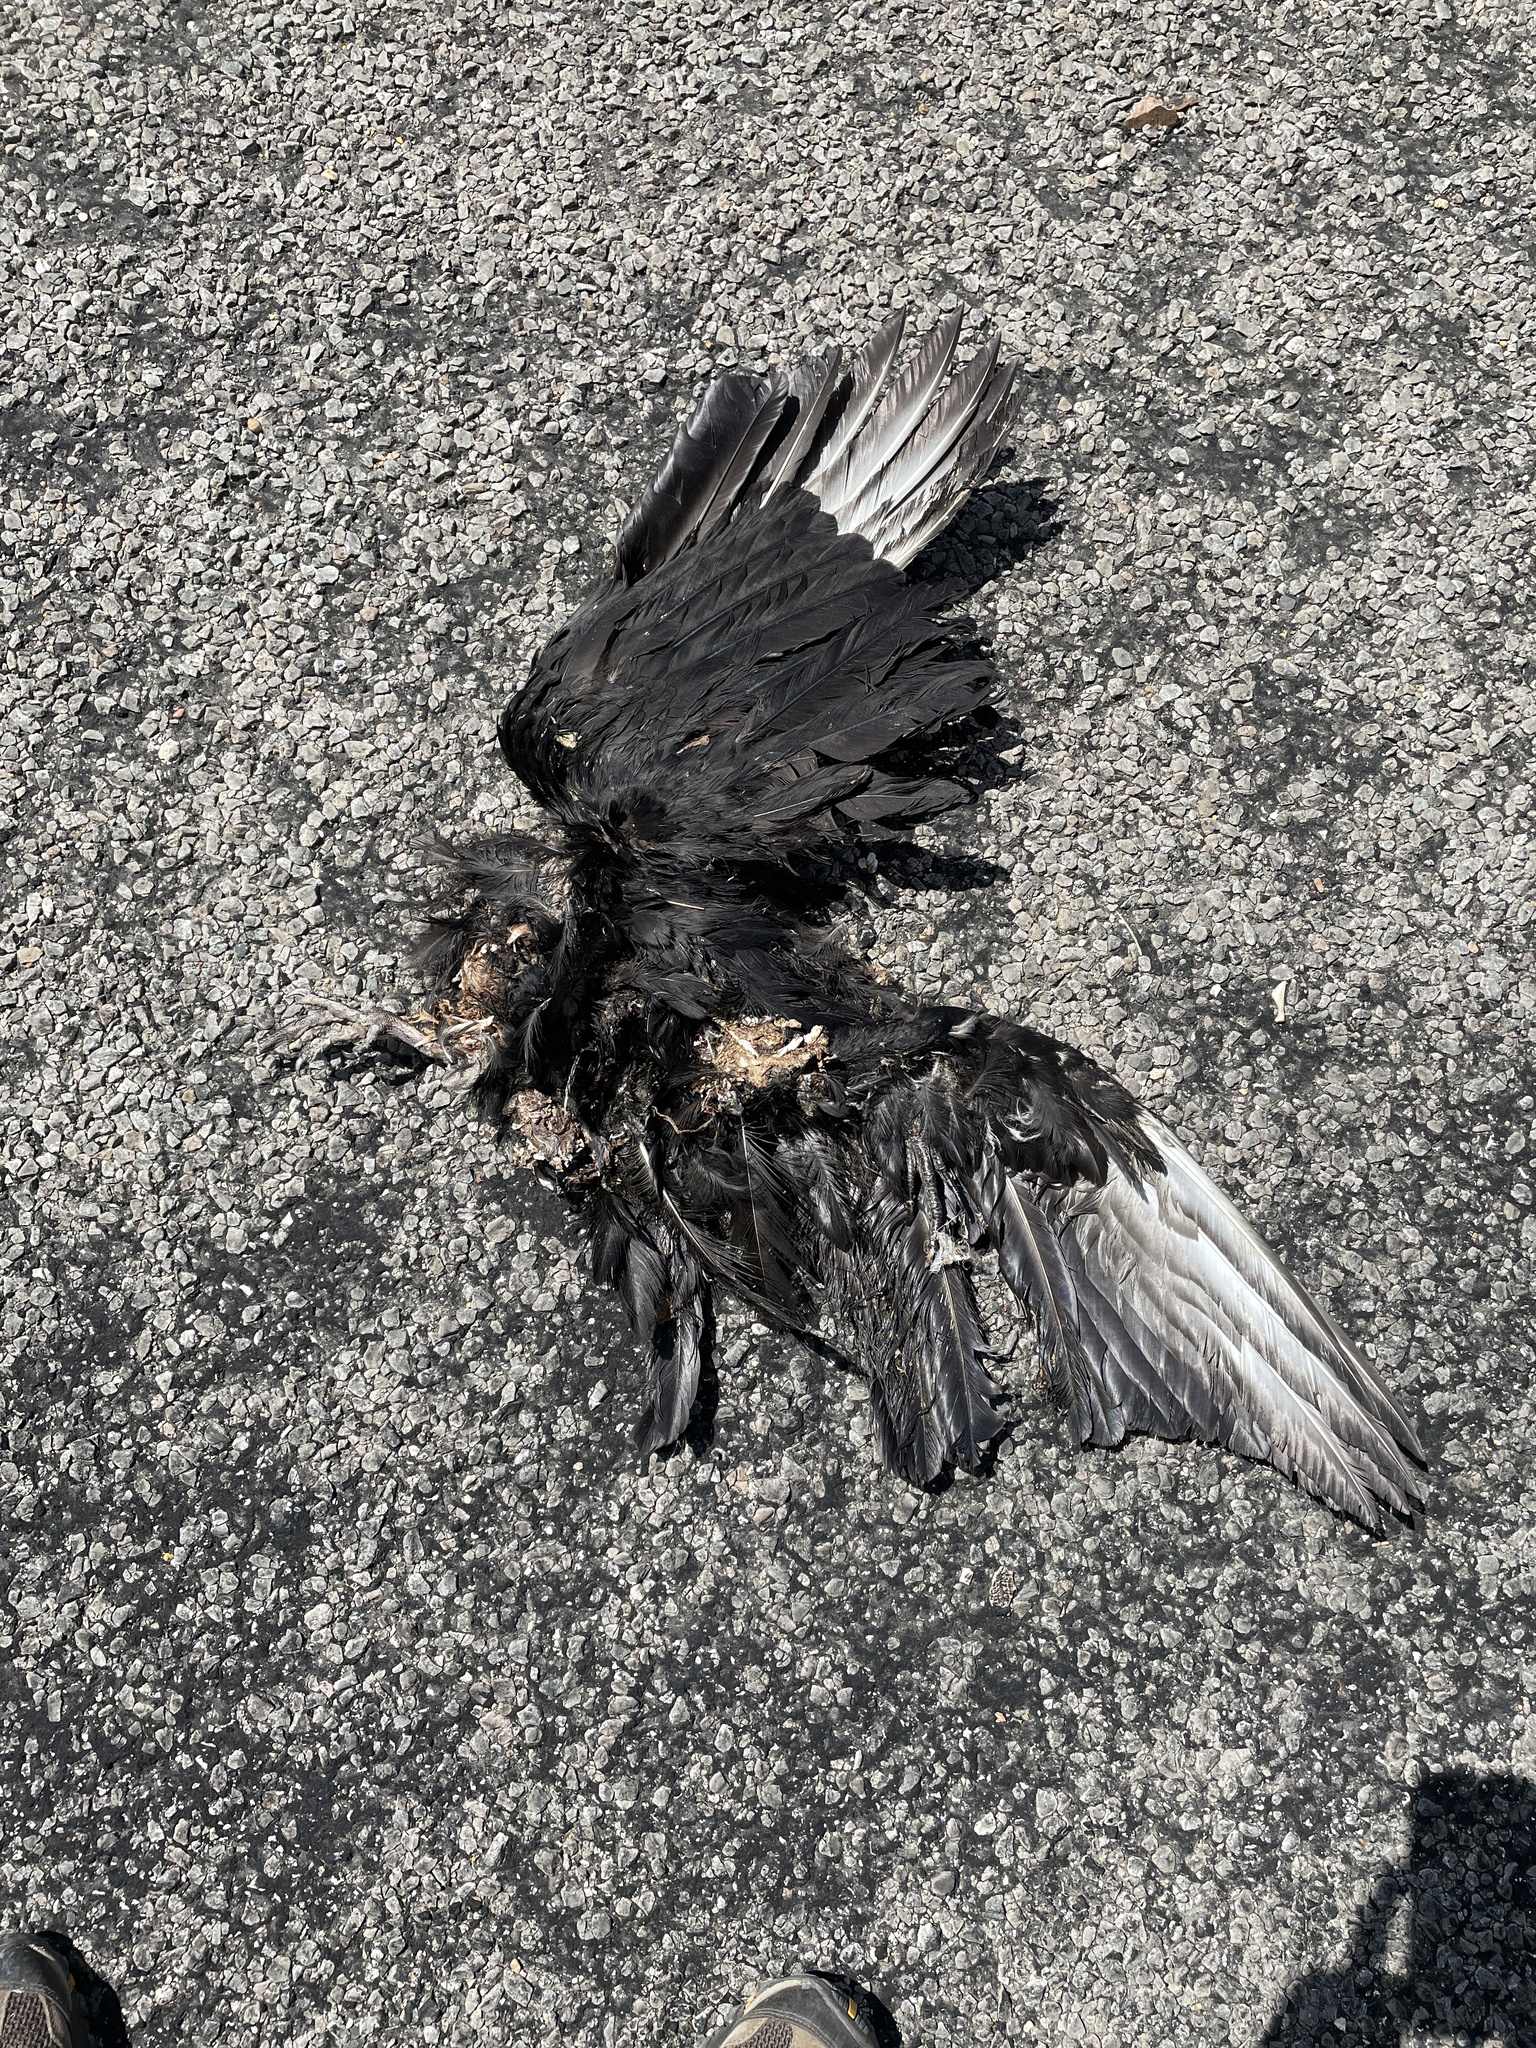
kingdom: Animalia
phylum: Chordata
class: Aves
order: Accipitriformes
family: Cathartidae
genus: Coragyps
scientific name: Coragyps atratus
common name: Black vulture
